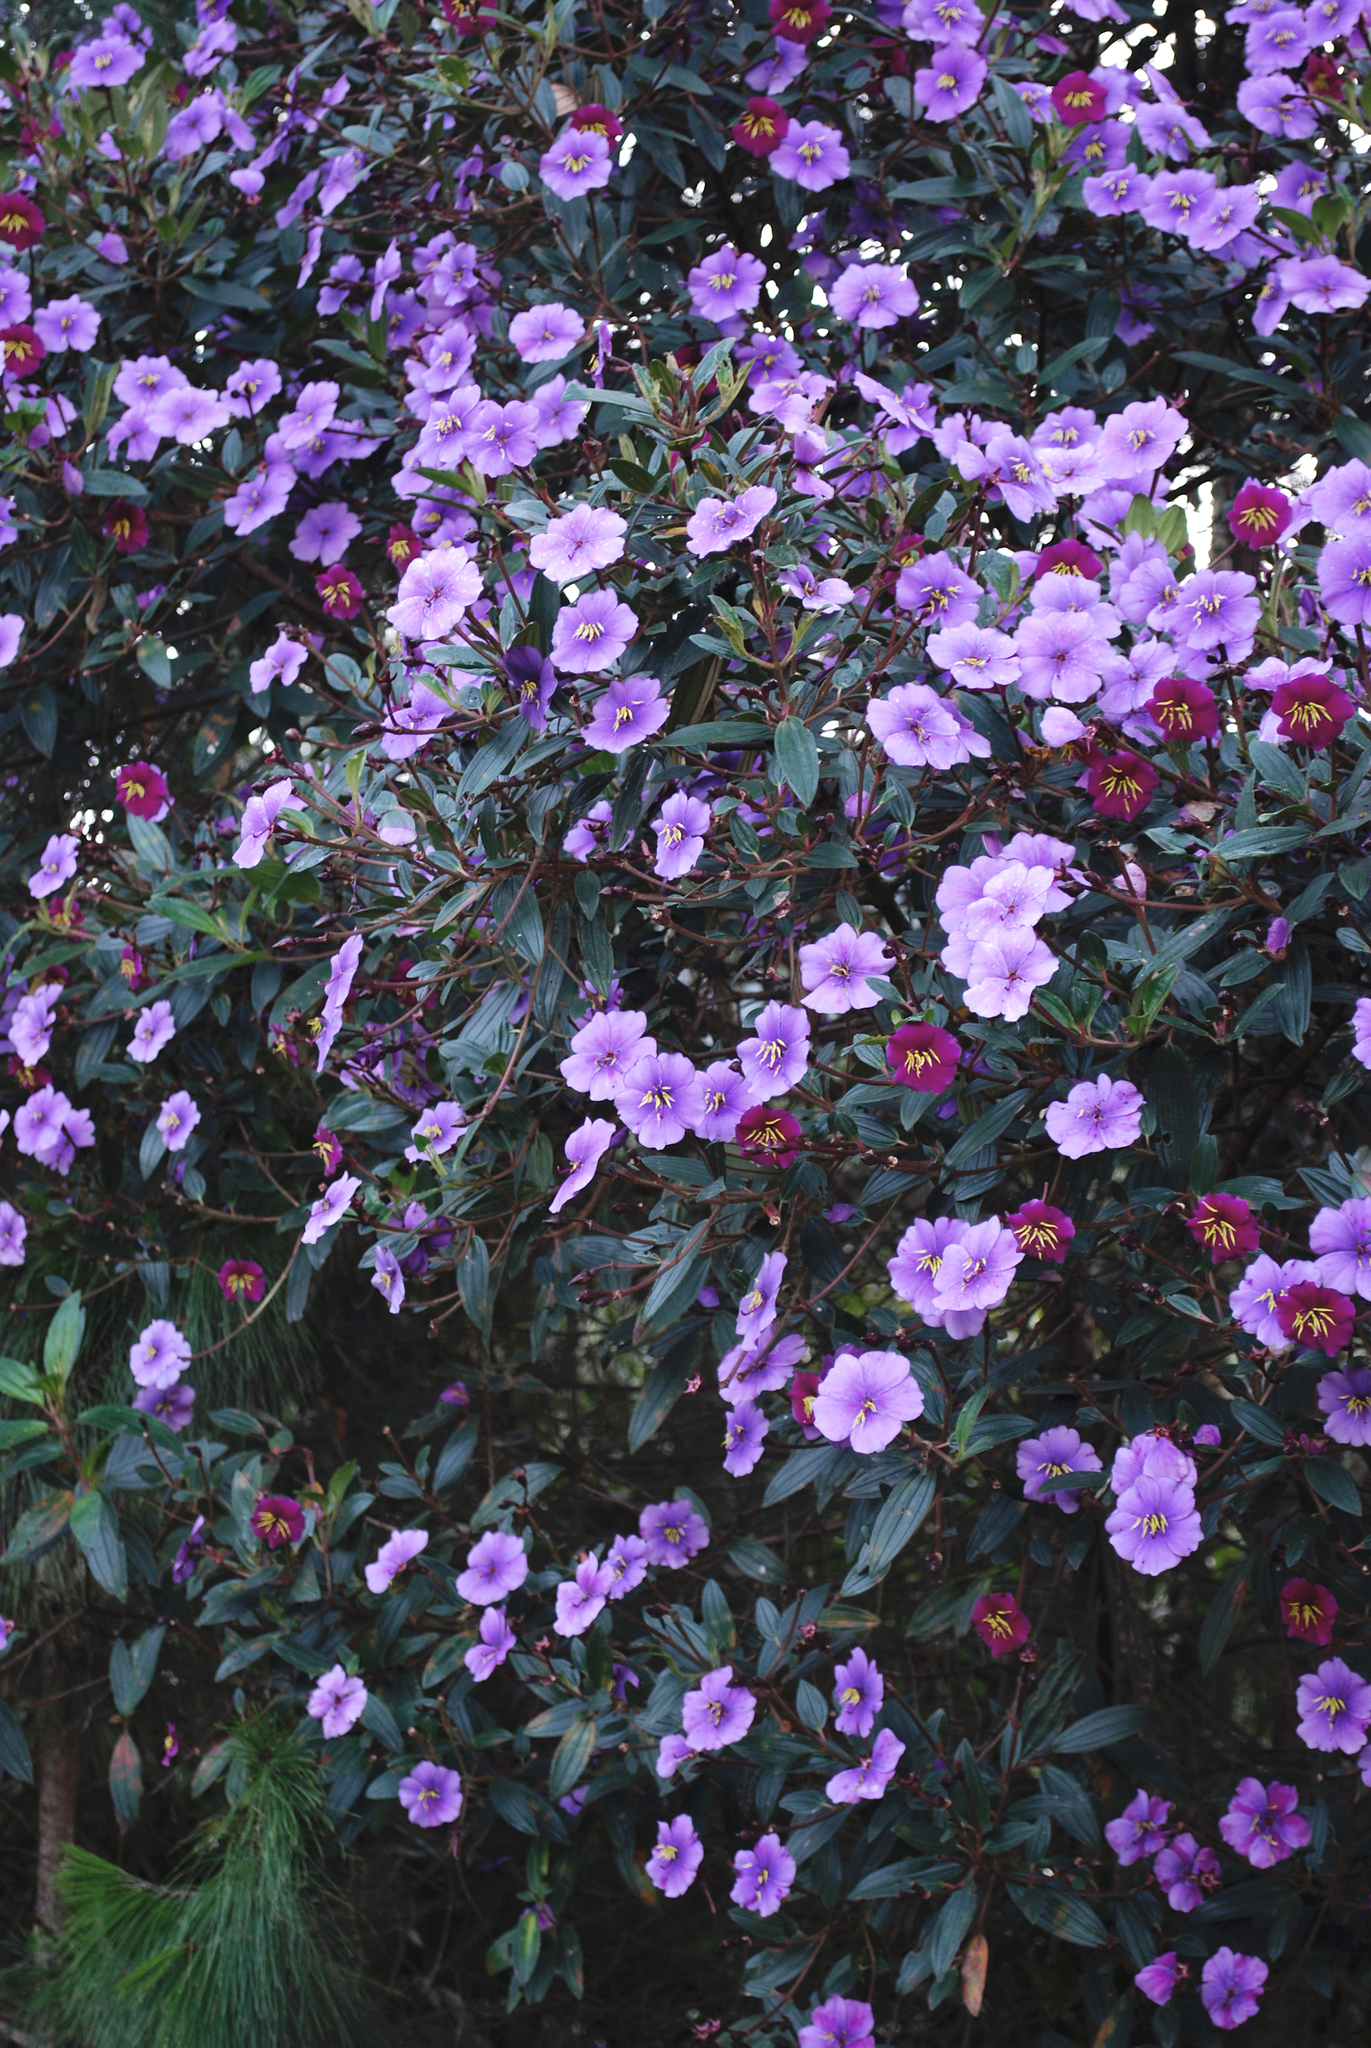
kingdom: Plantae
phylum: Tracheophyta
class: Magnoliopsida
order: Myrtales
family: Melastomataceae
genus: Andesanthus
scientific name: Andesanthus lepidotus
